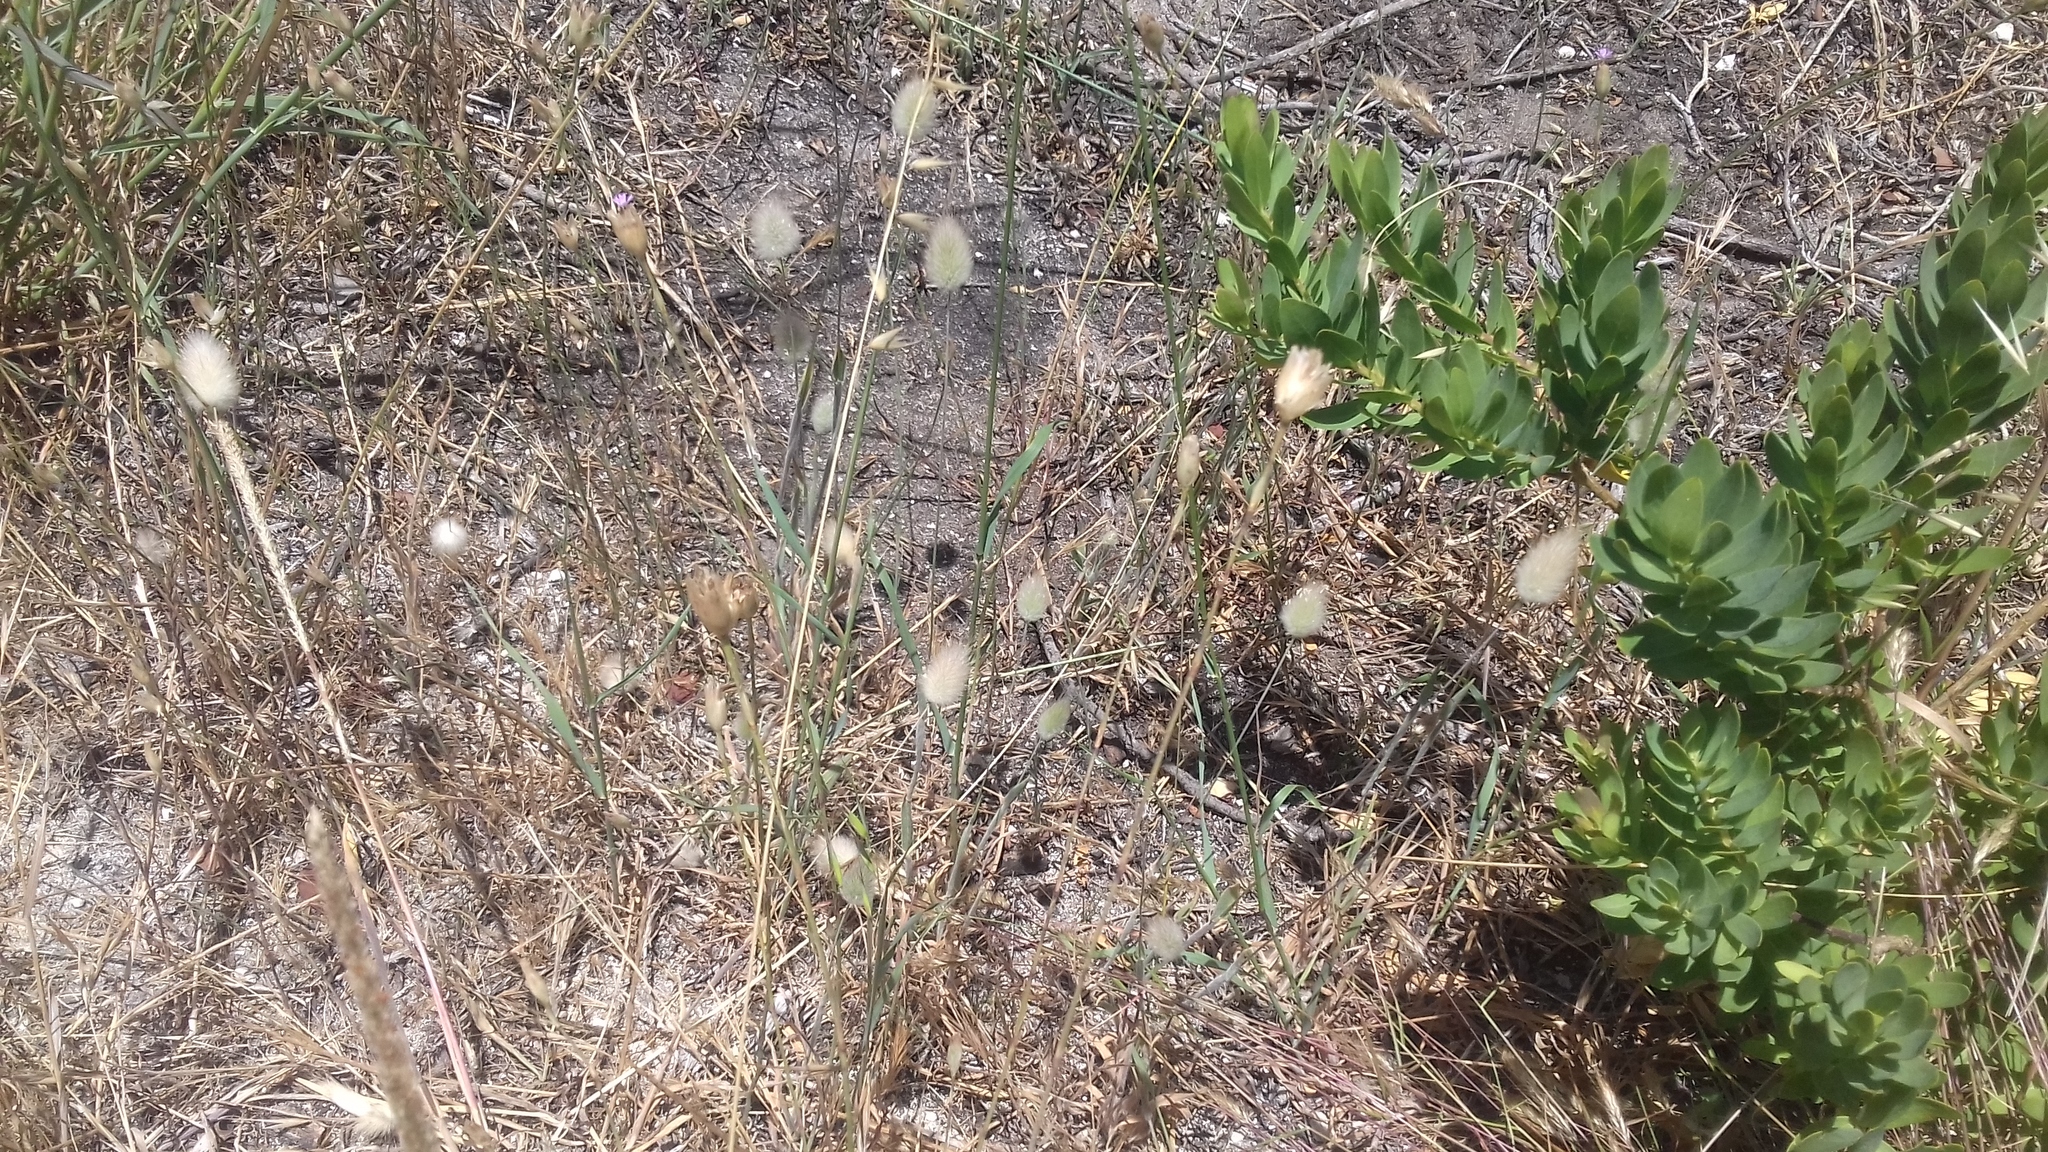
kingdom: Plantae
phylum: Tracheophyta
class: Liliopsida
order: Poales
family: Poaceae
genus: Lagurus
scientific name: Lagurus ovatus
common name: Hare's-tail
